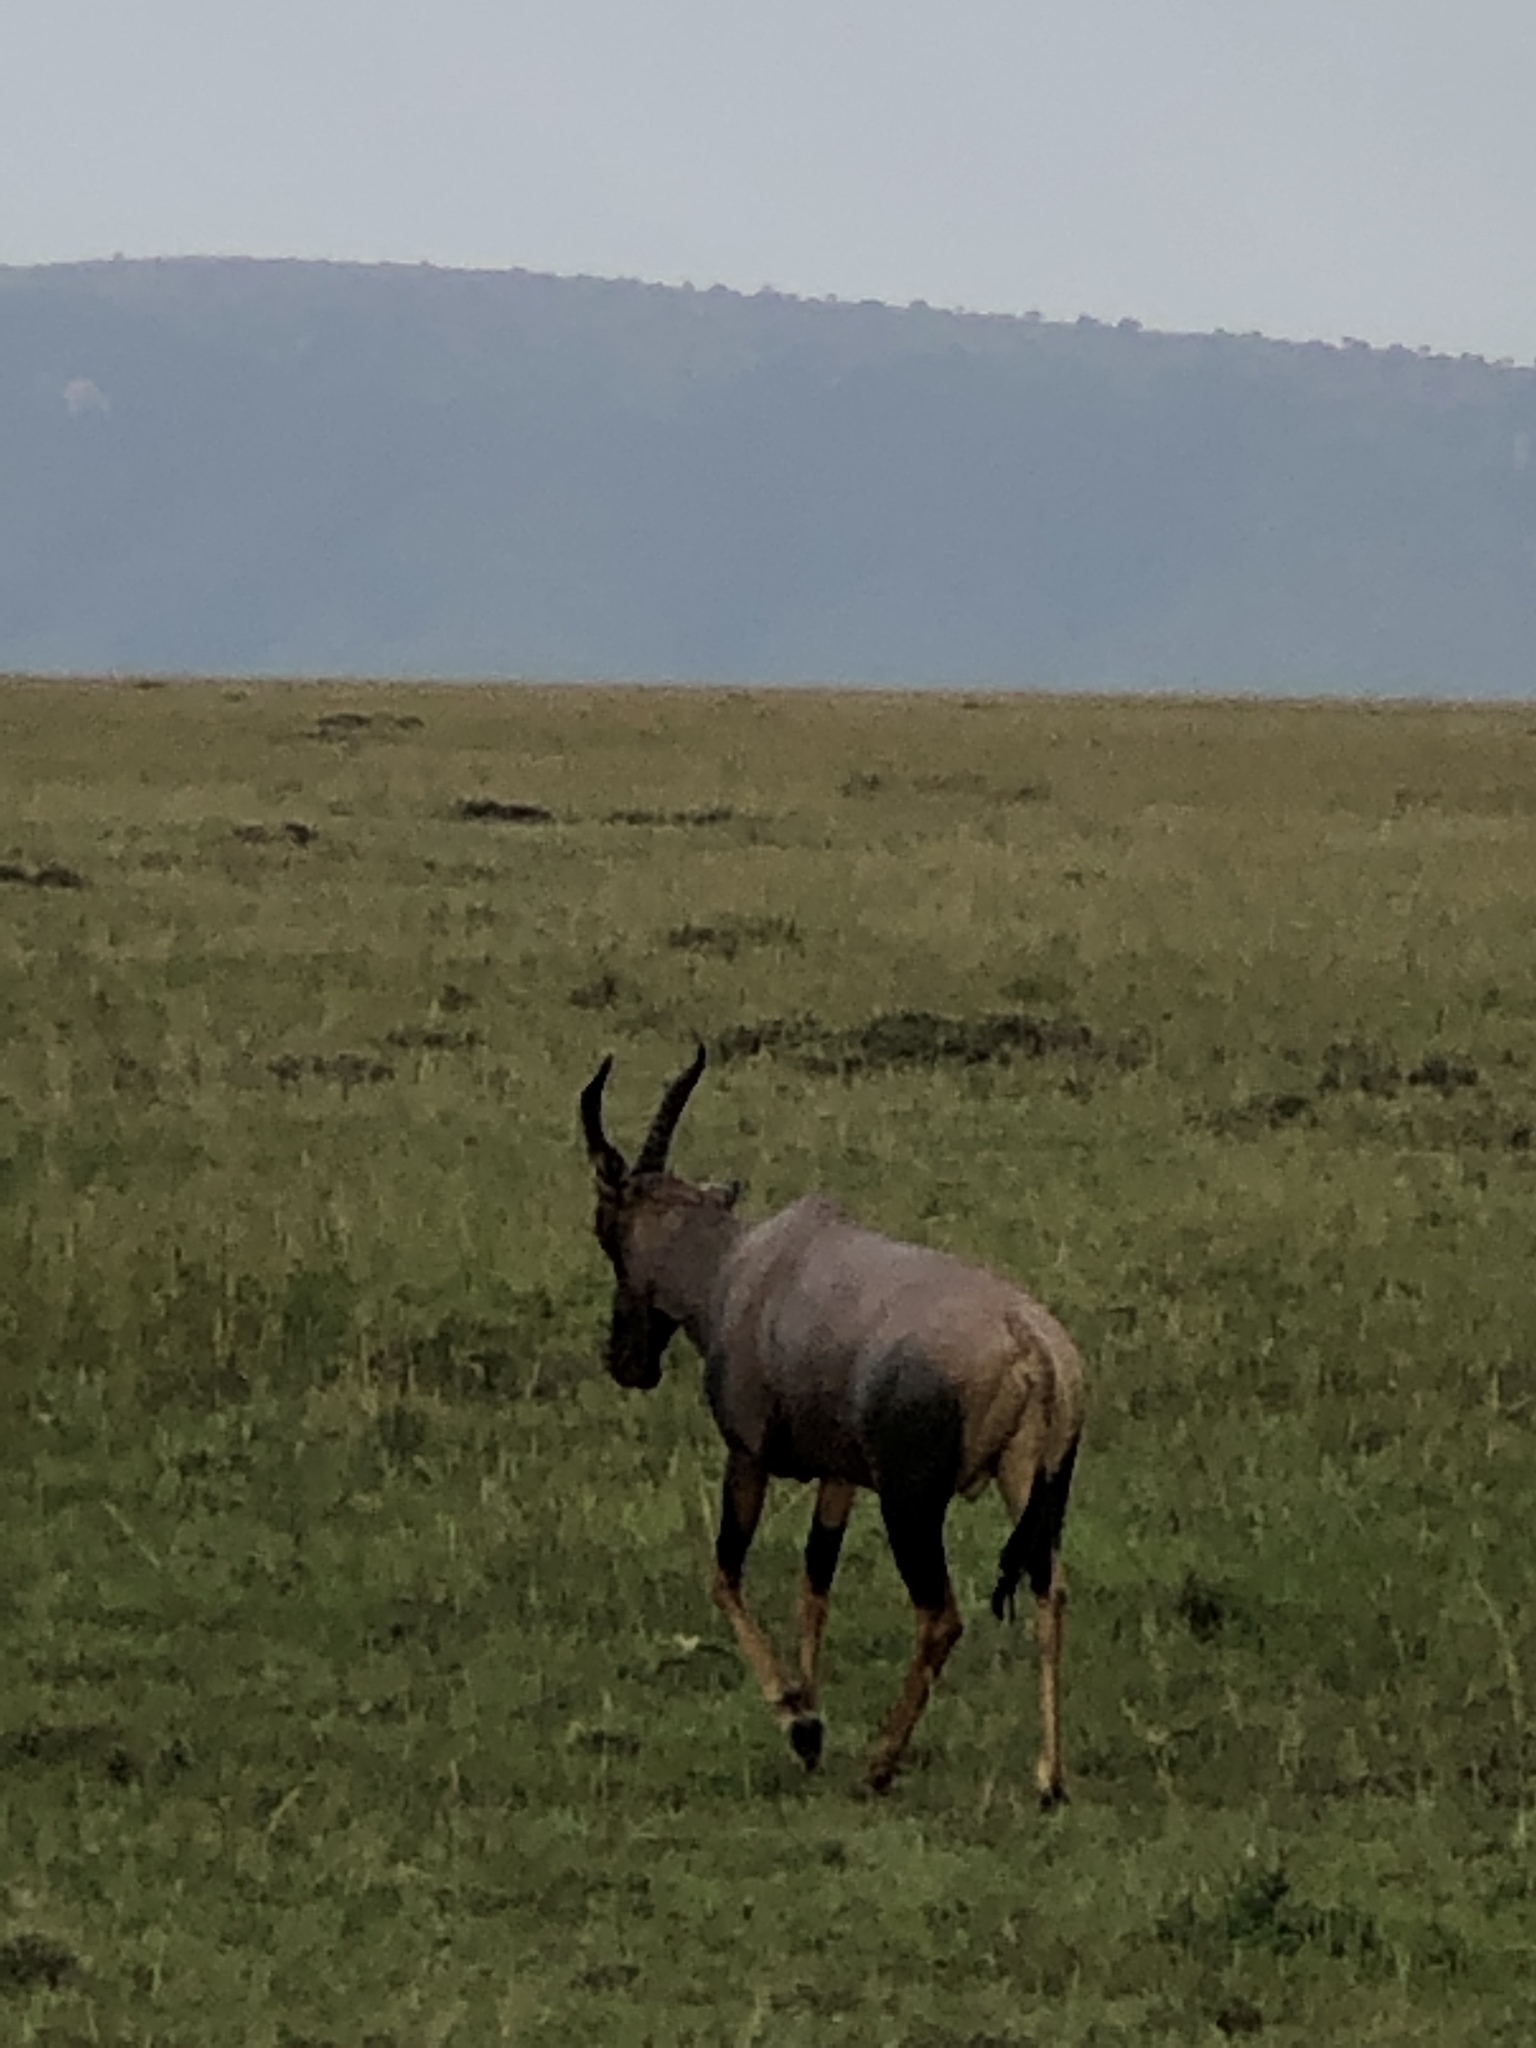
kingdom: Animalia
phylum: Chordata
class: Mammalia
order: Artiodactyla
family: Bovidae
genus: Damaliscus
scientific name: Damaliscus korrigum
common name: Topi
